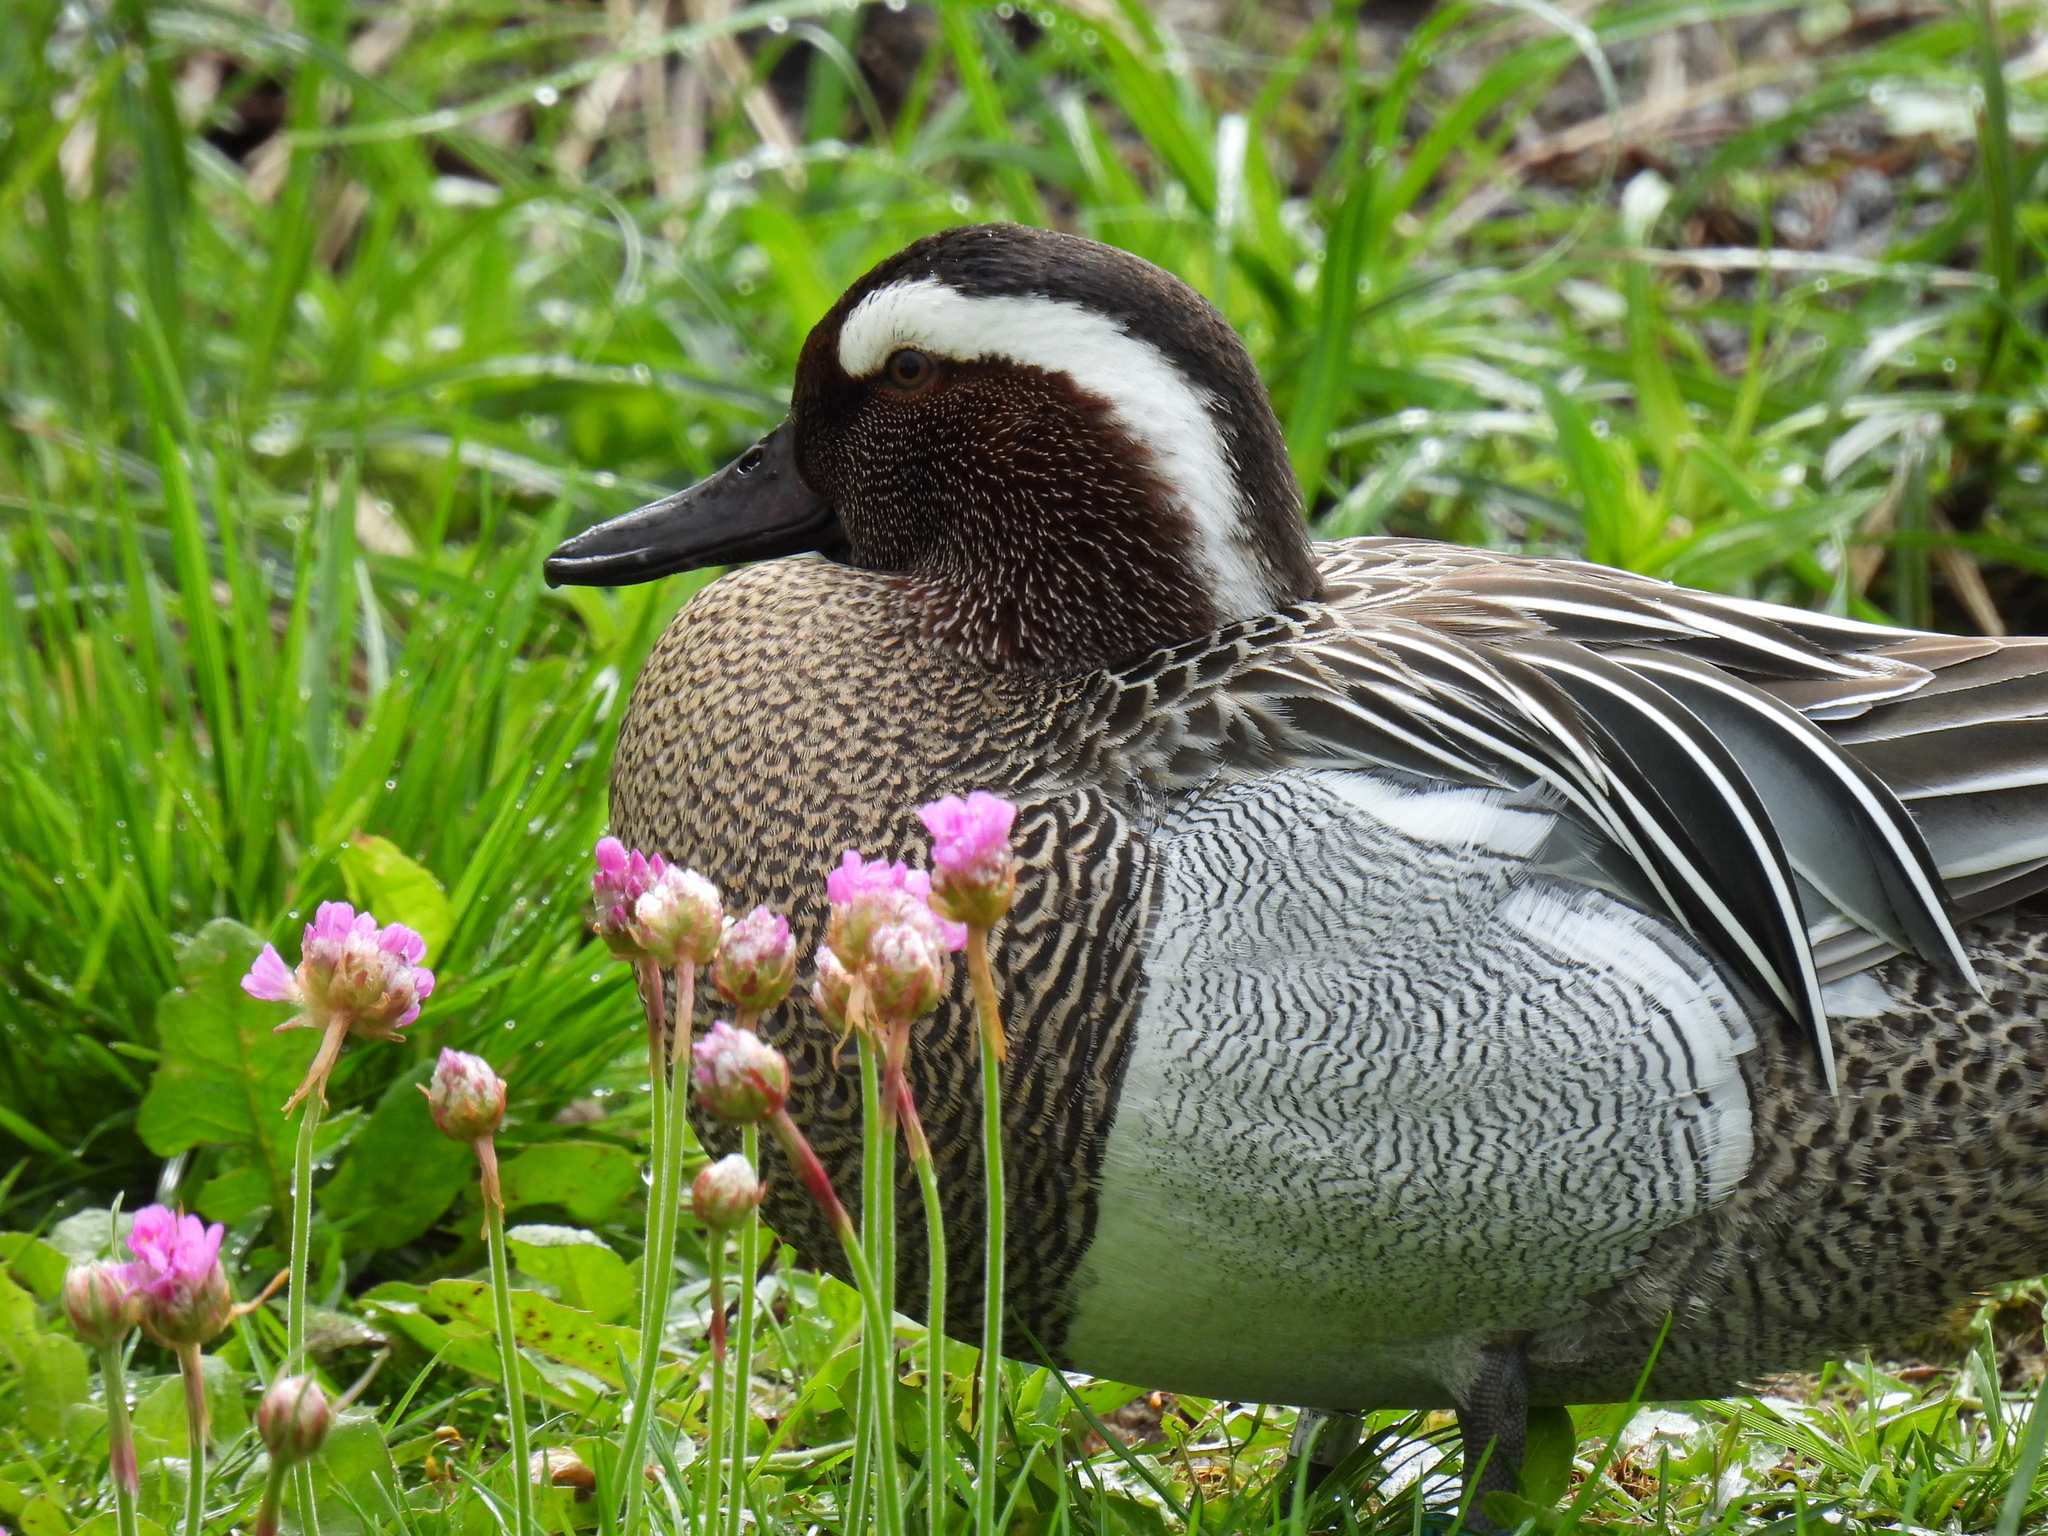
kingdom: Animalia
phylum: Chordata
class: Aves
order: Anseriformes
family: Anatidae
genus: Spatula
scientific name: Spatula querquedula
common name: Garganey
